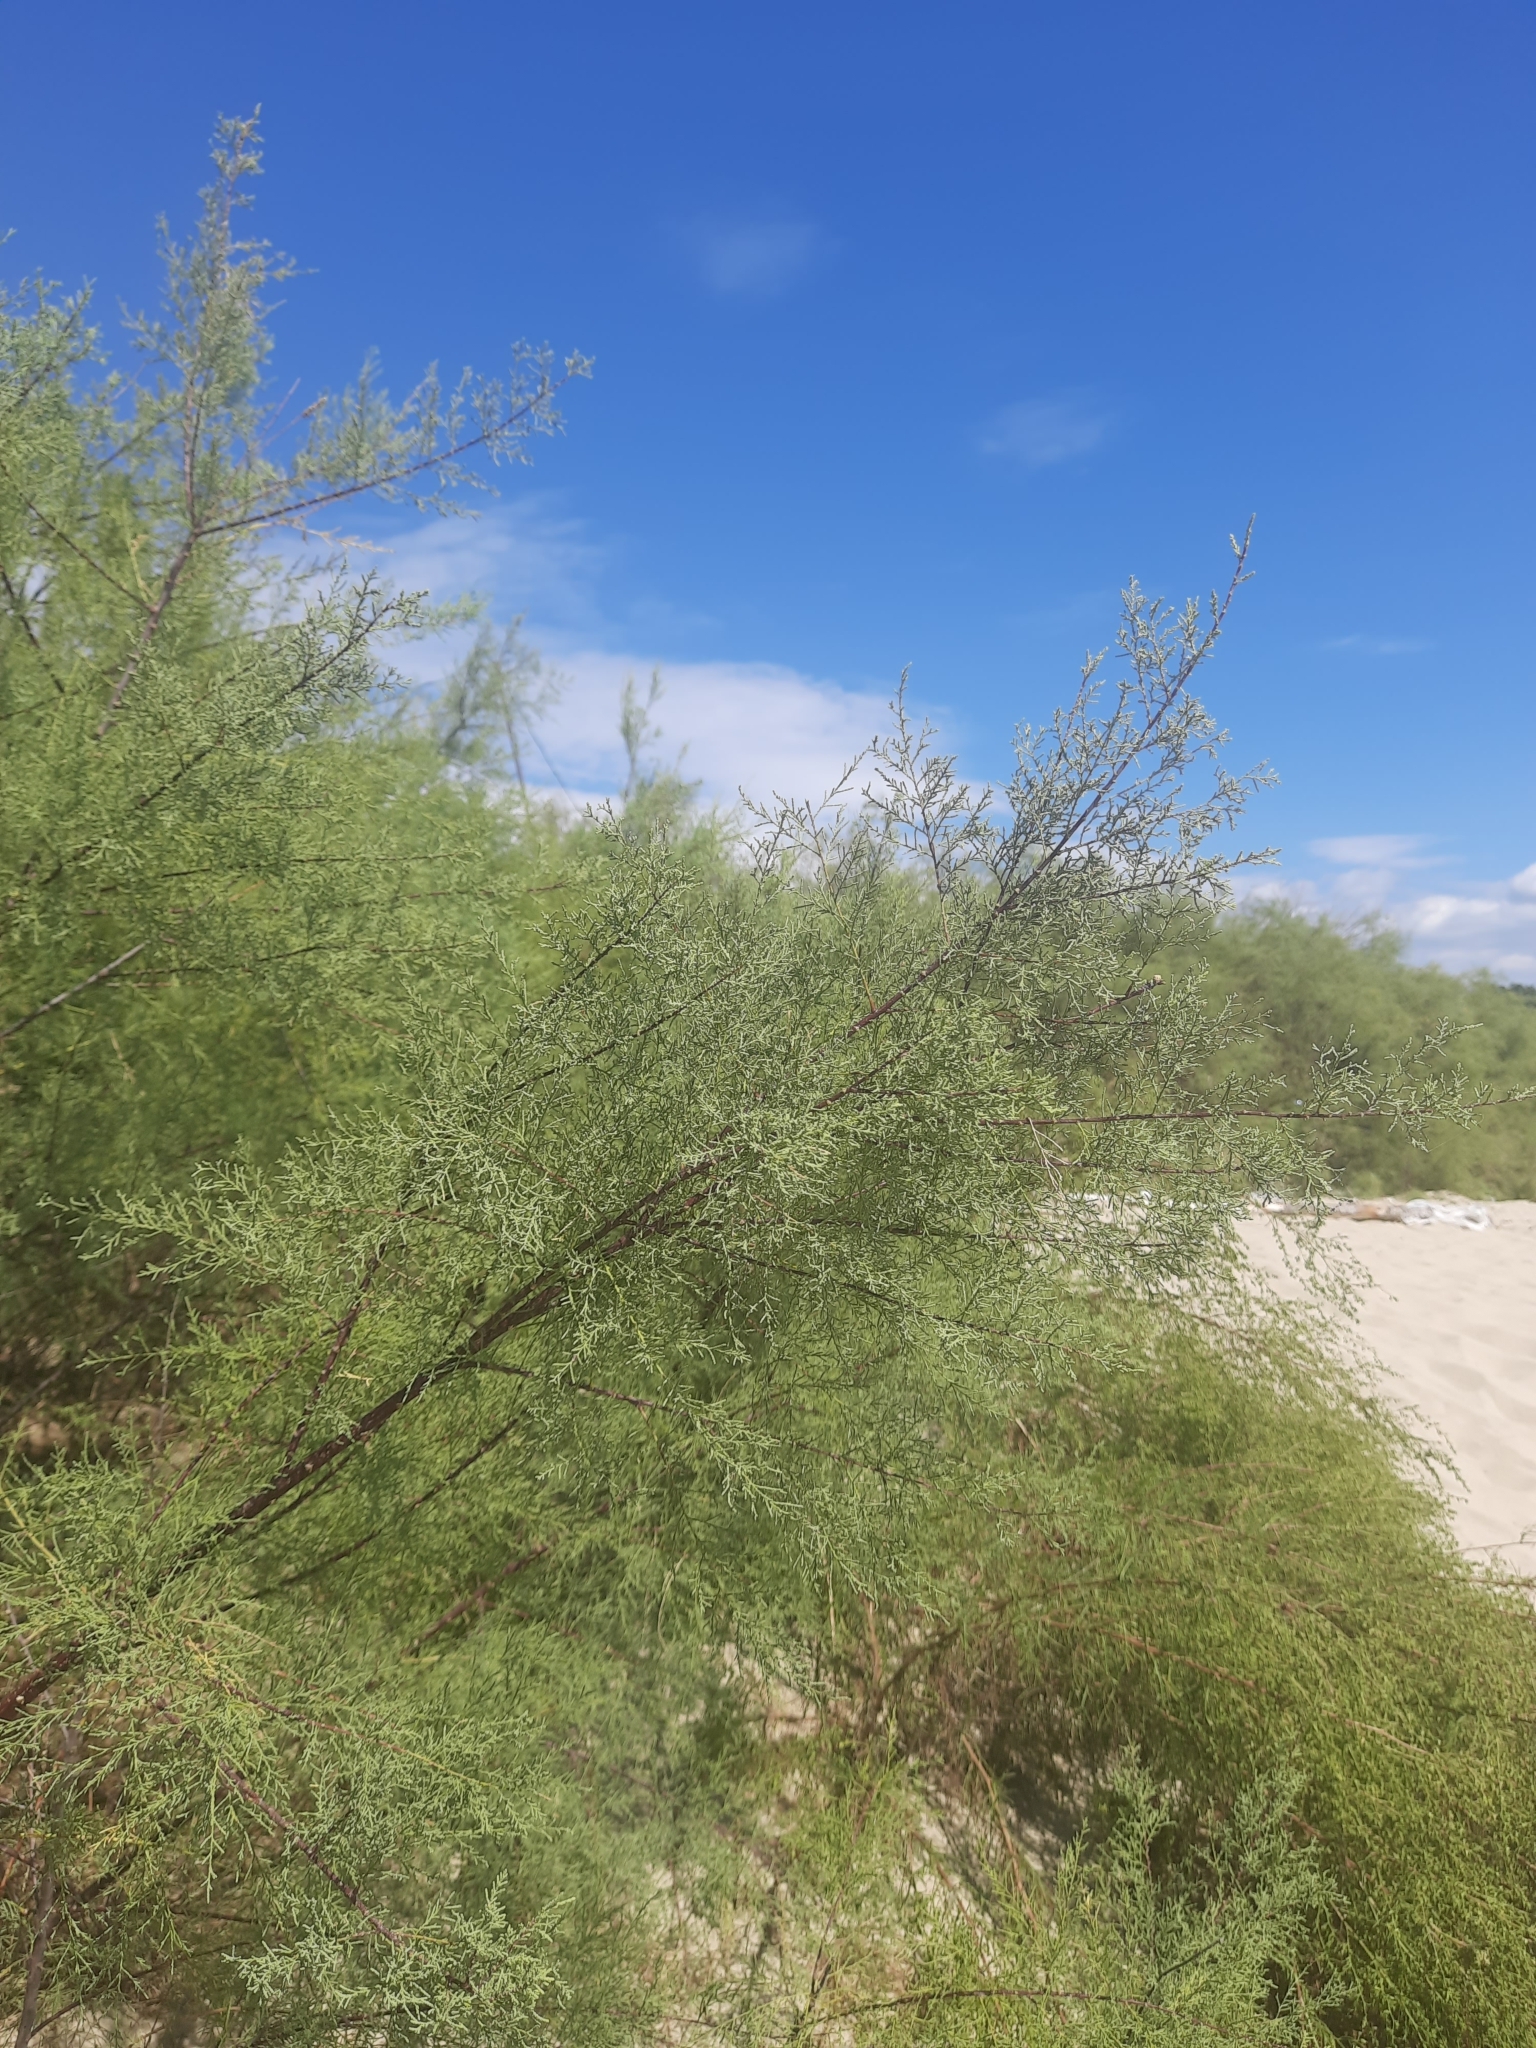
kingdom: Plantae
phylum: Tracheophyta
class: Magnoliopsida
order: Caryophyllales
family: Tamaricaceae
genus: Tamarix
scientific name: Tamarix ramosissima
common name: Pink tamarisk
